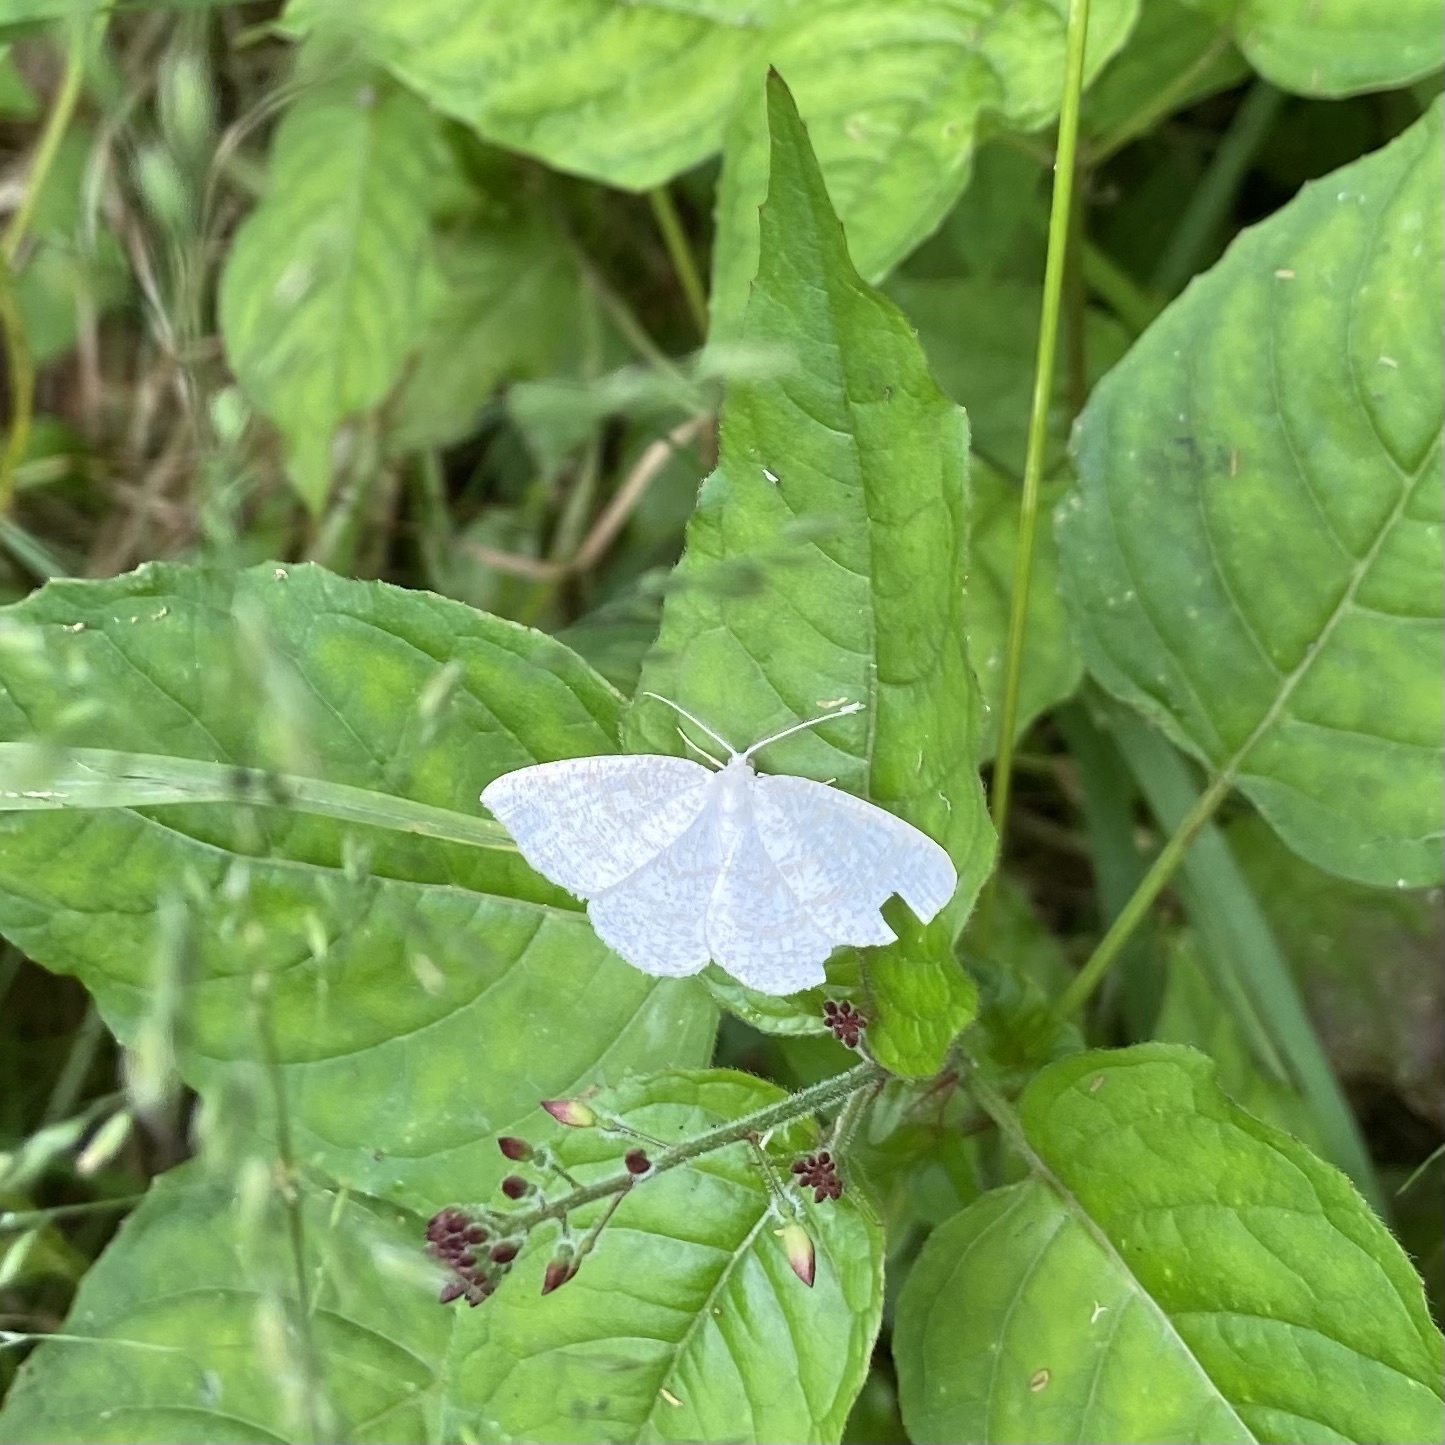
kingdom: Animalia
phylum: Arthropoda
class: Insecta
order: Lepidoptera
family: Geometridae
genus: Cabera
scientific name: Cabera exanthemata
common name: Common wave
